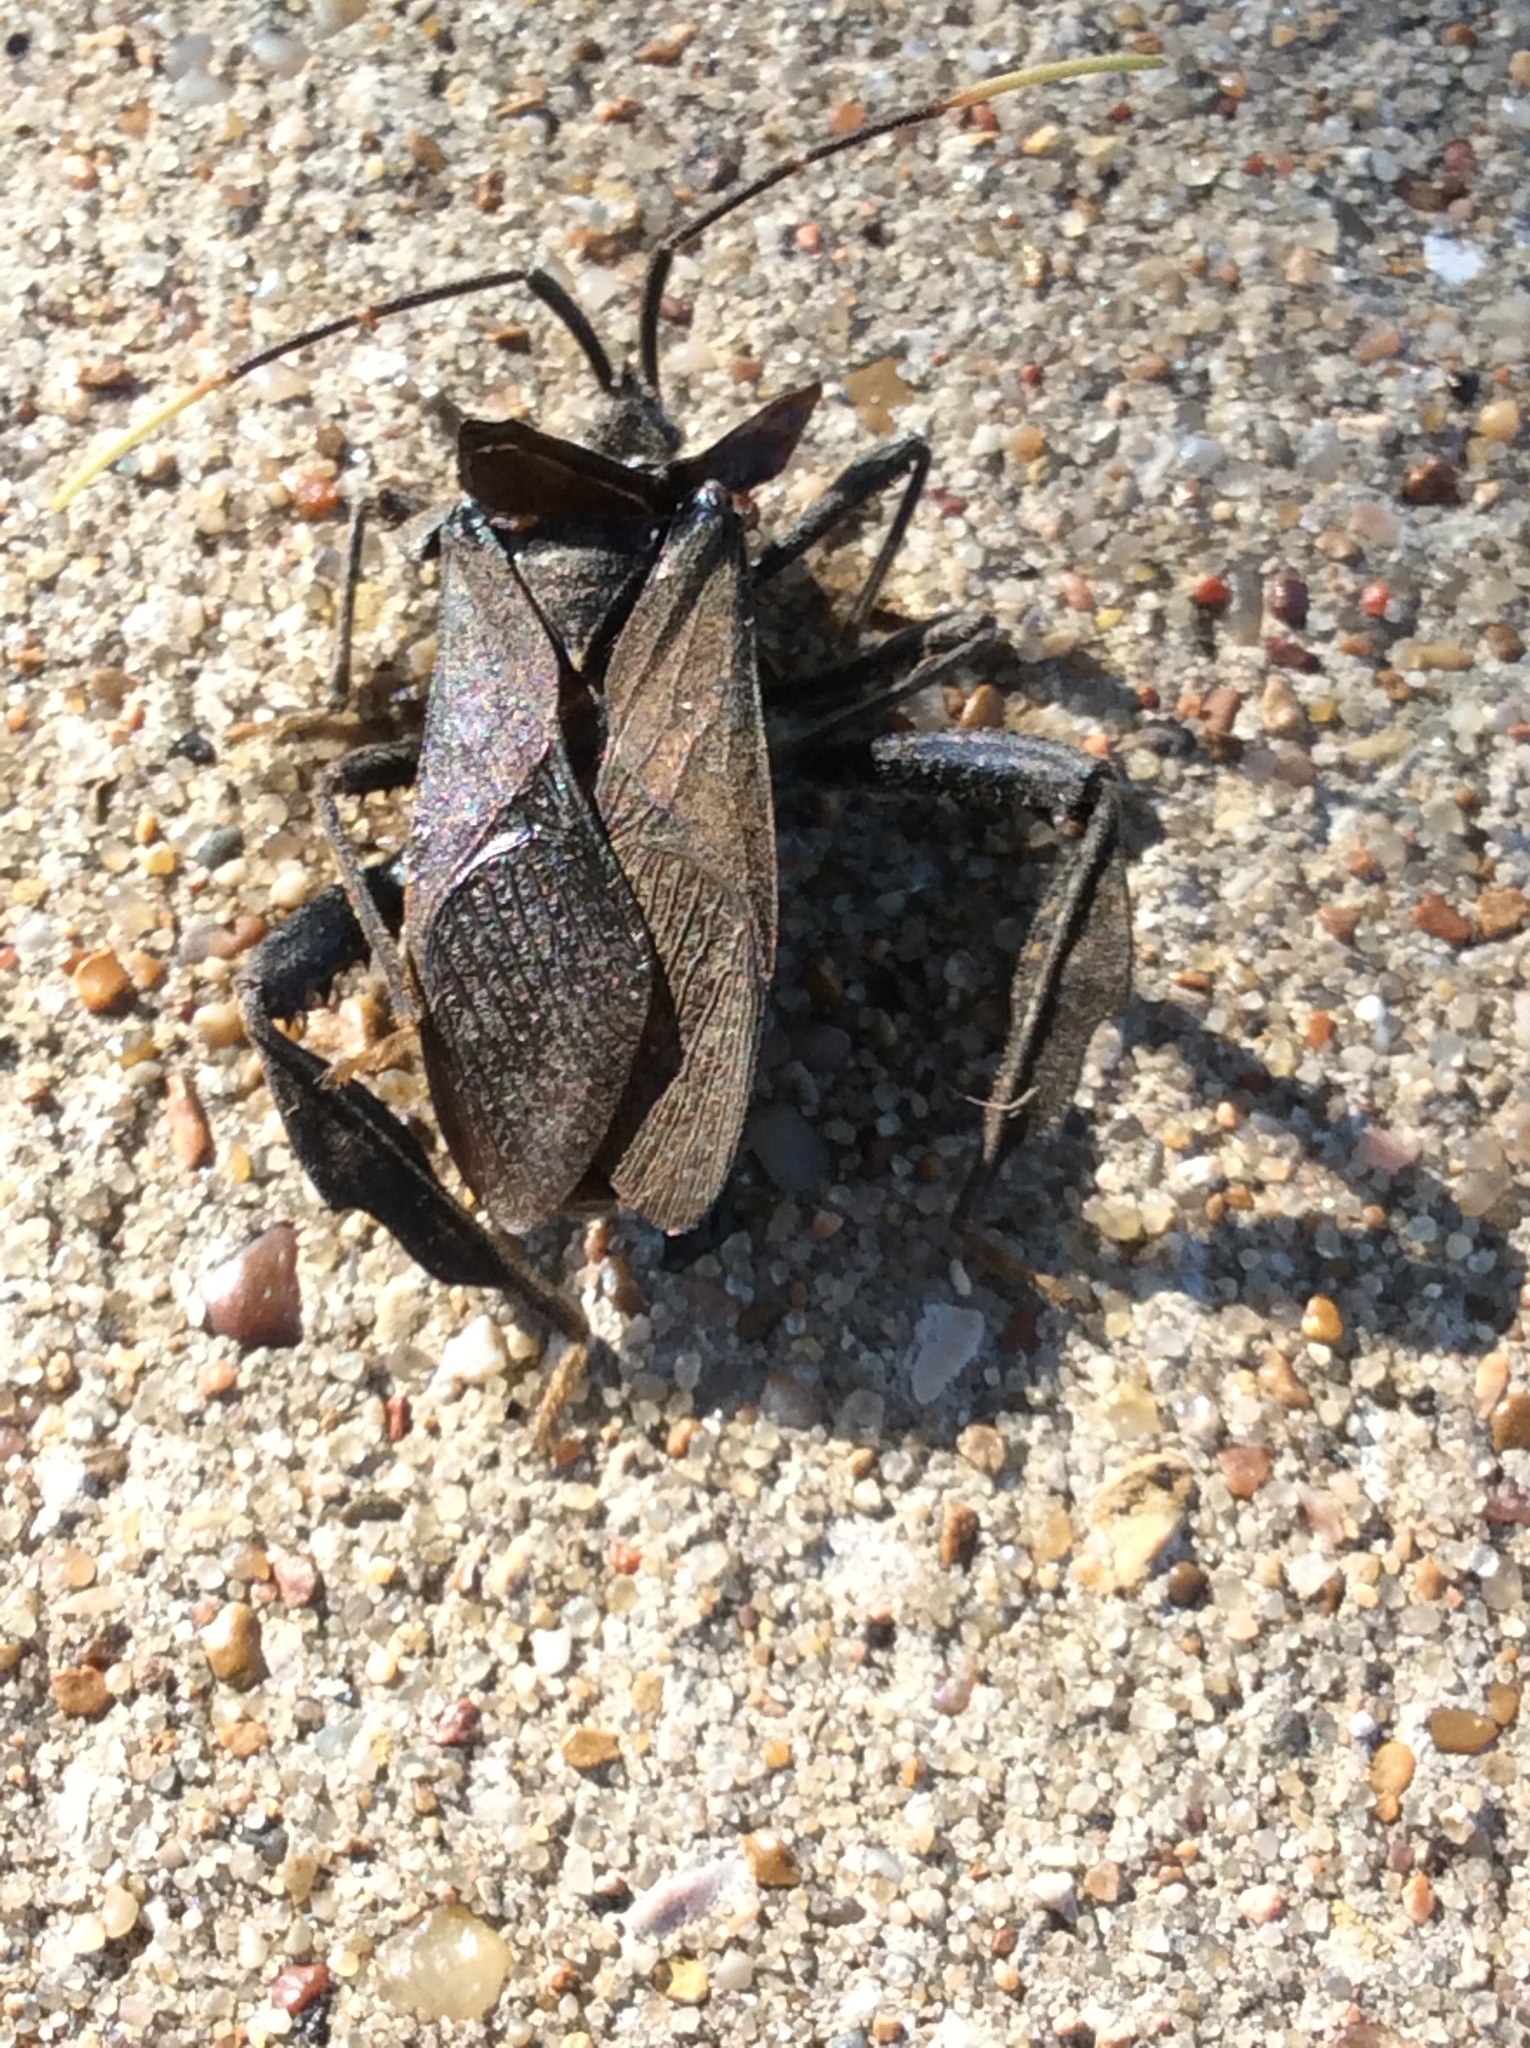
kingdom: Animalia
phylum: Arthropoda
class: Insecta
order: Hemiptera
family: Coreidae
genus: Acanthocephala
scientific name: Acanthocephala terminalis
